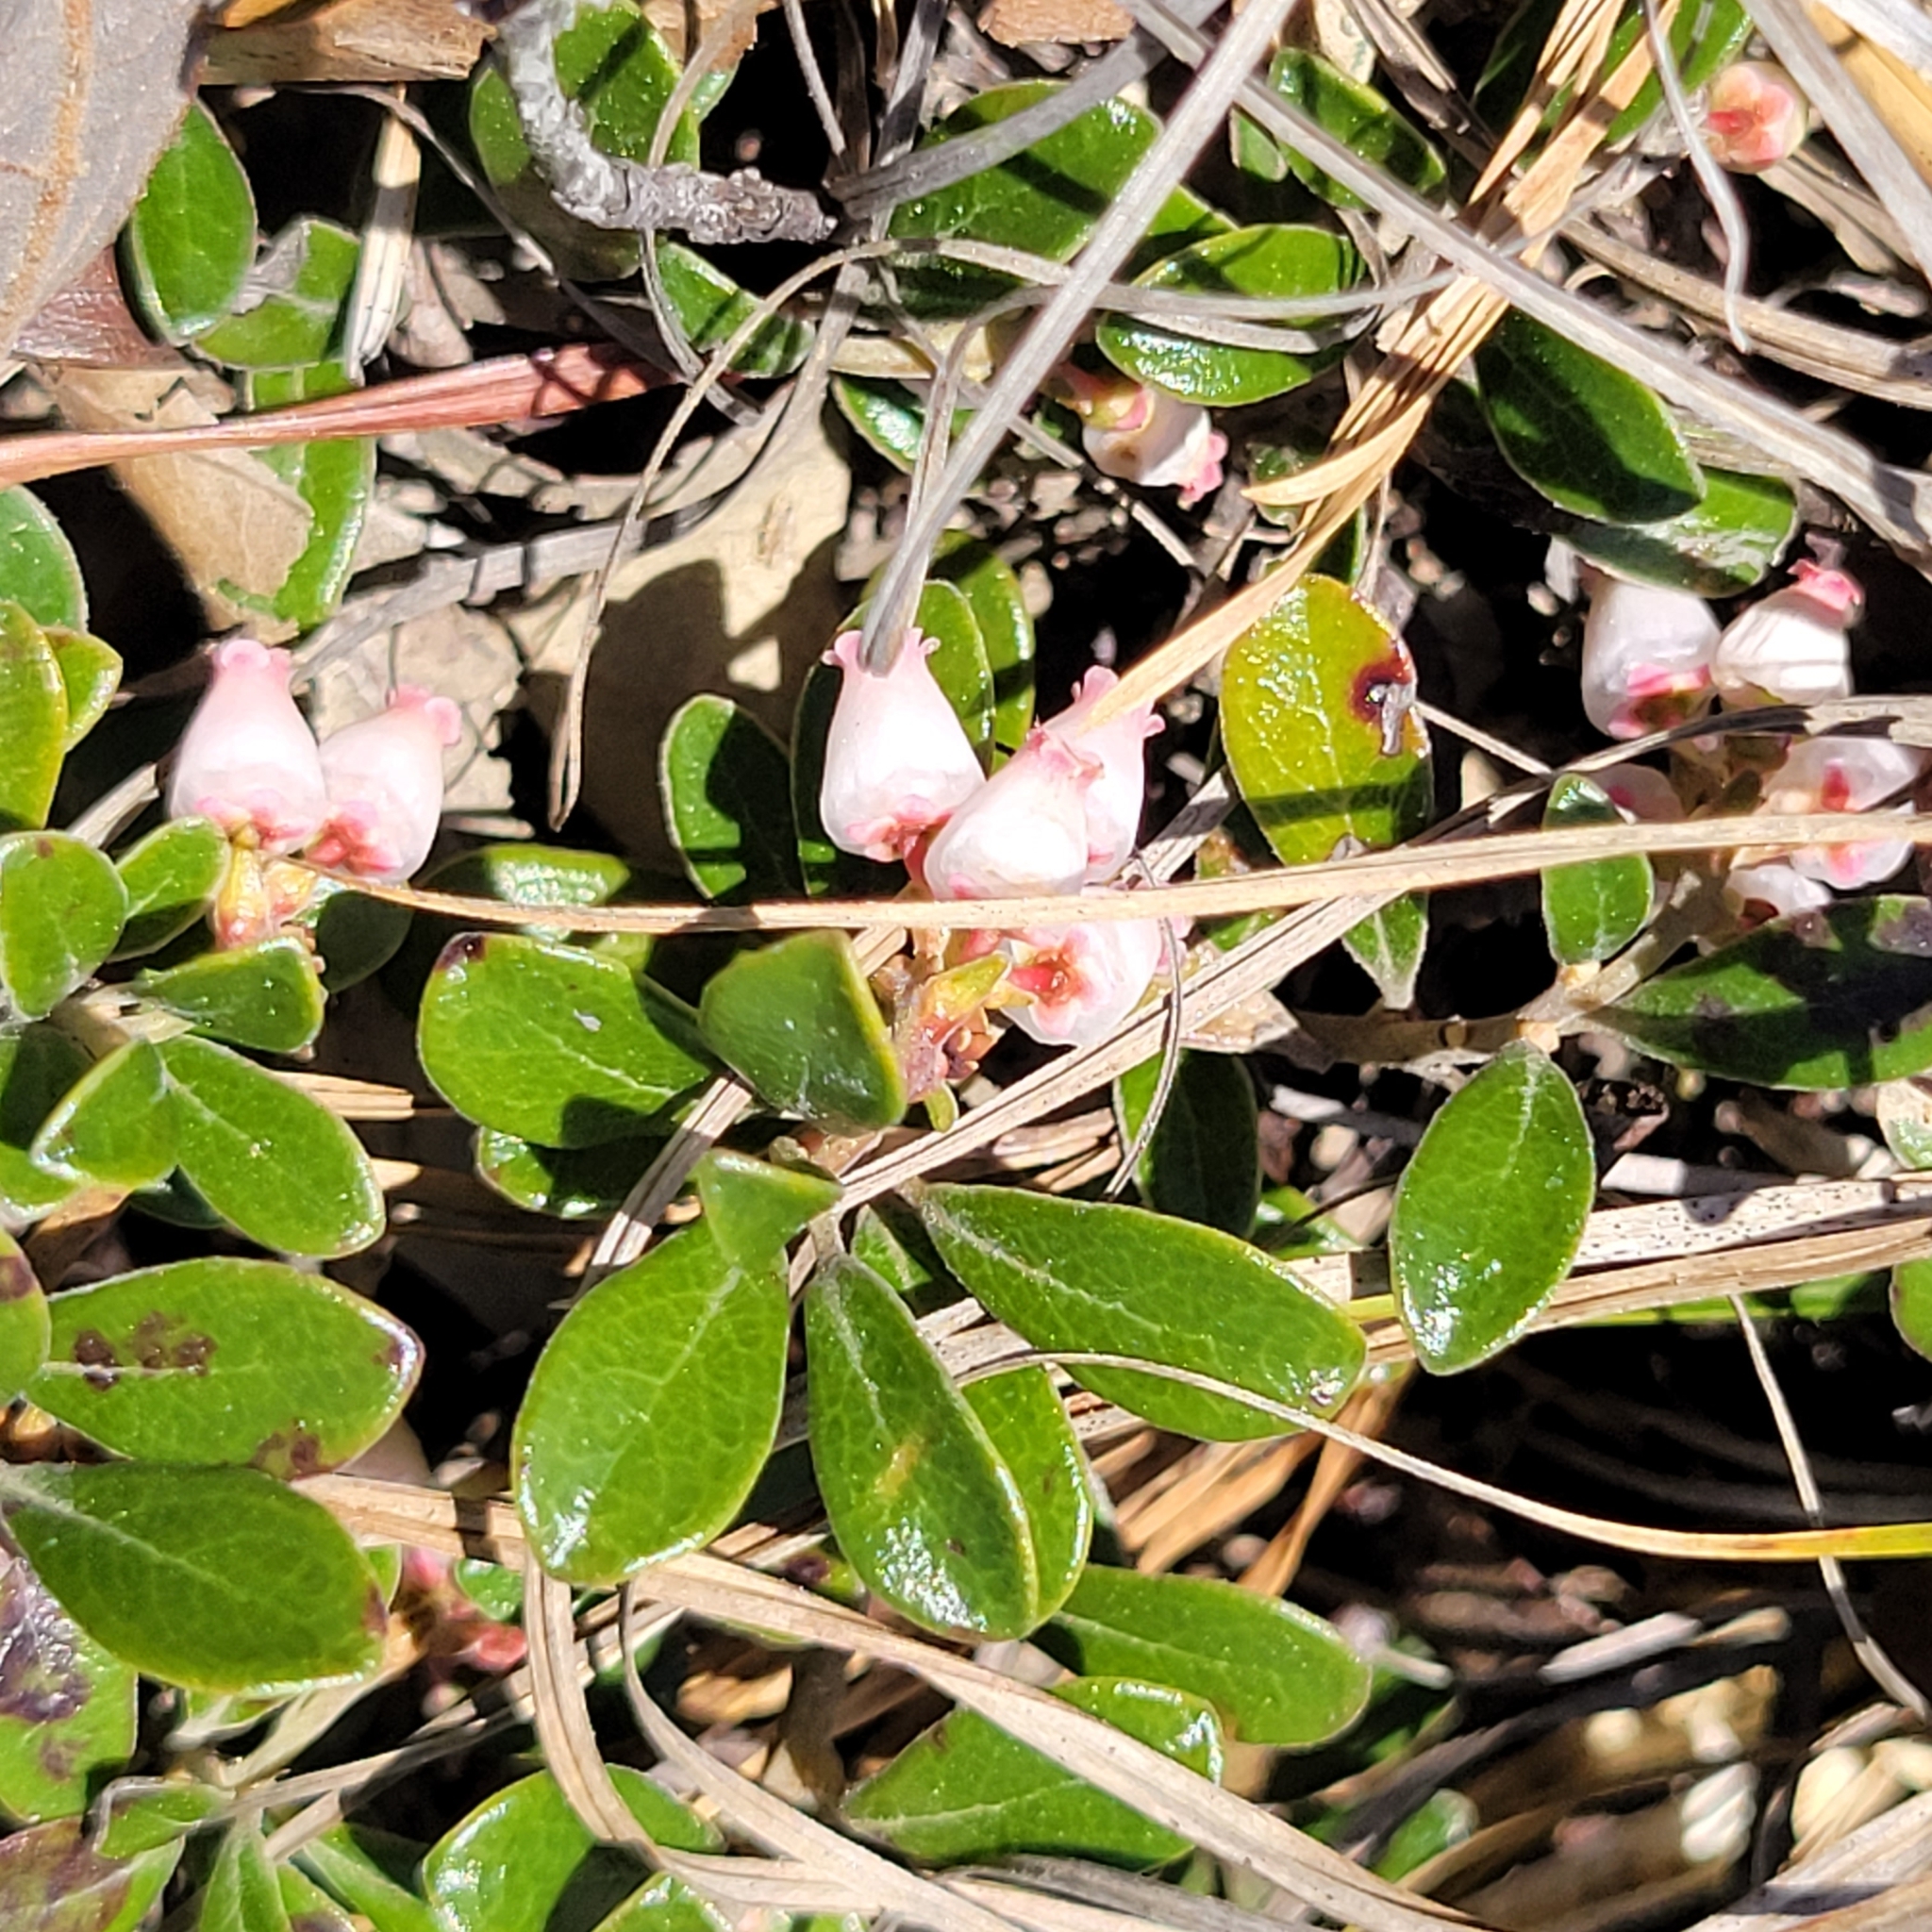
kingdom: Plantae
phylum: Tracheophyta
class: Magnoliopsida
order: Ericales
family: Ericaceae
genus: Arctostaphylos
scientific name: Arctostaphylos uva-ursi
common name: Bearberry
